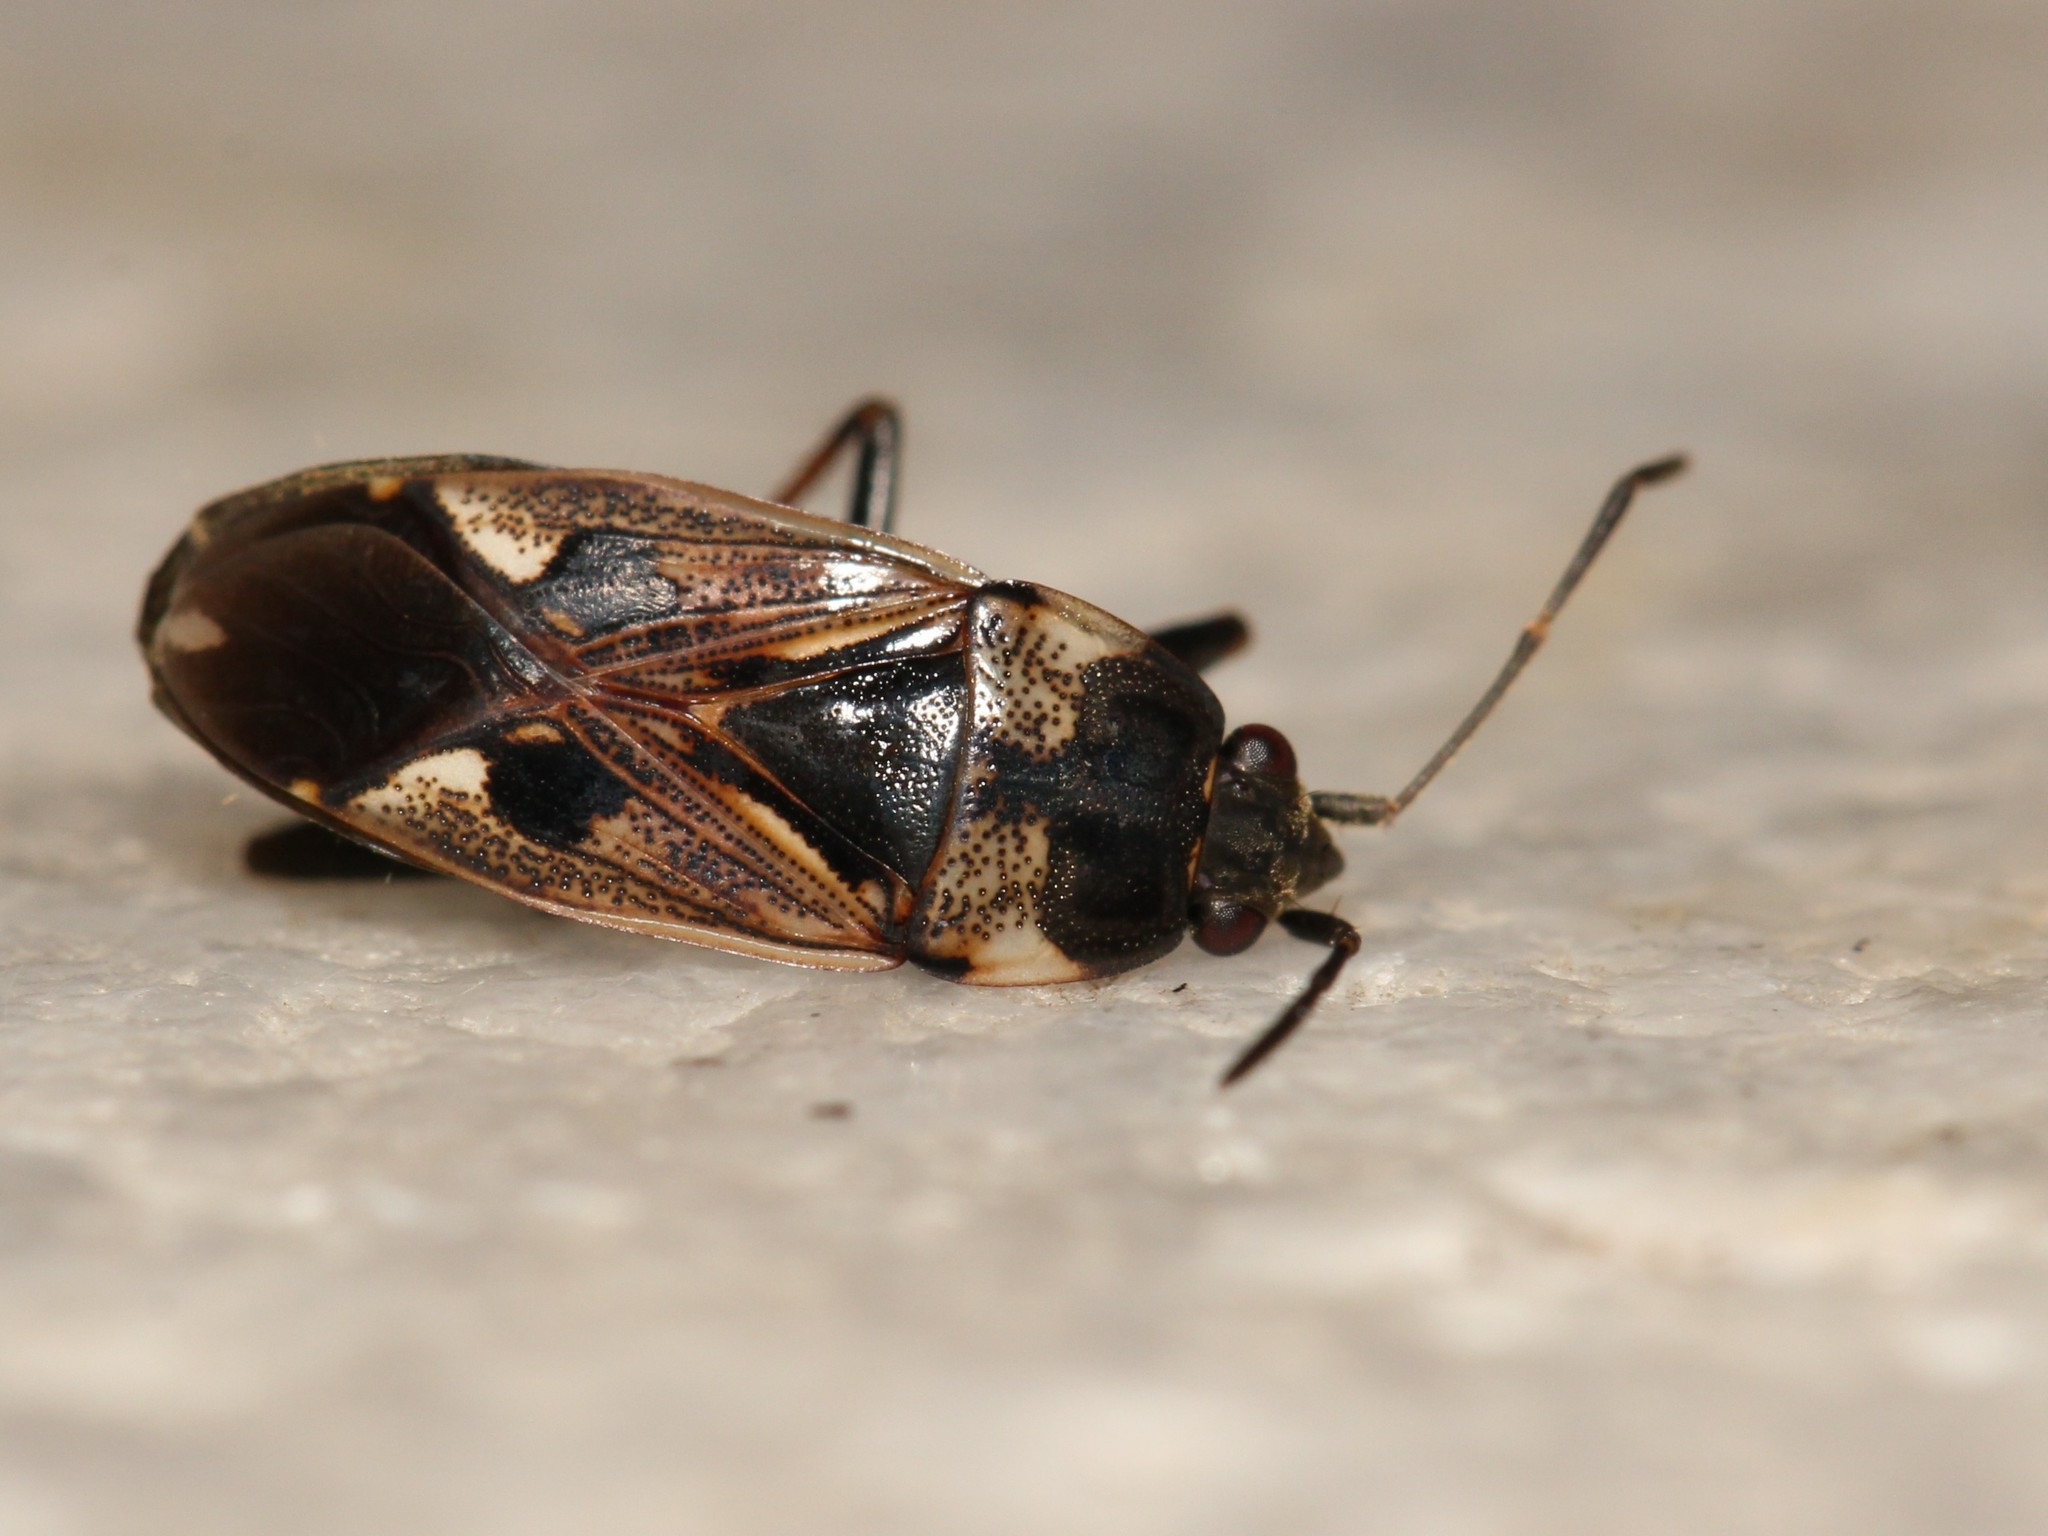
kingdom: Animalia
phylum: Arthropoda
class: Insecta
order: Hemiptera
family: Rhyparochromidae
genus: Rhyparochromus
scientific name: Rhyparochromus vulgaris
